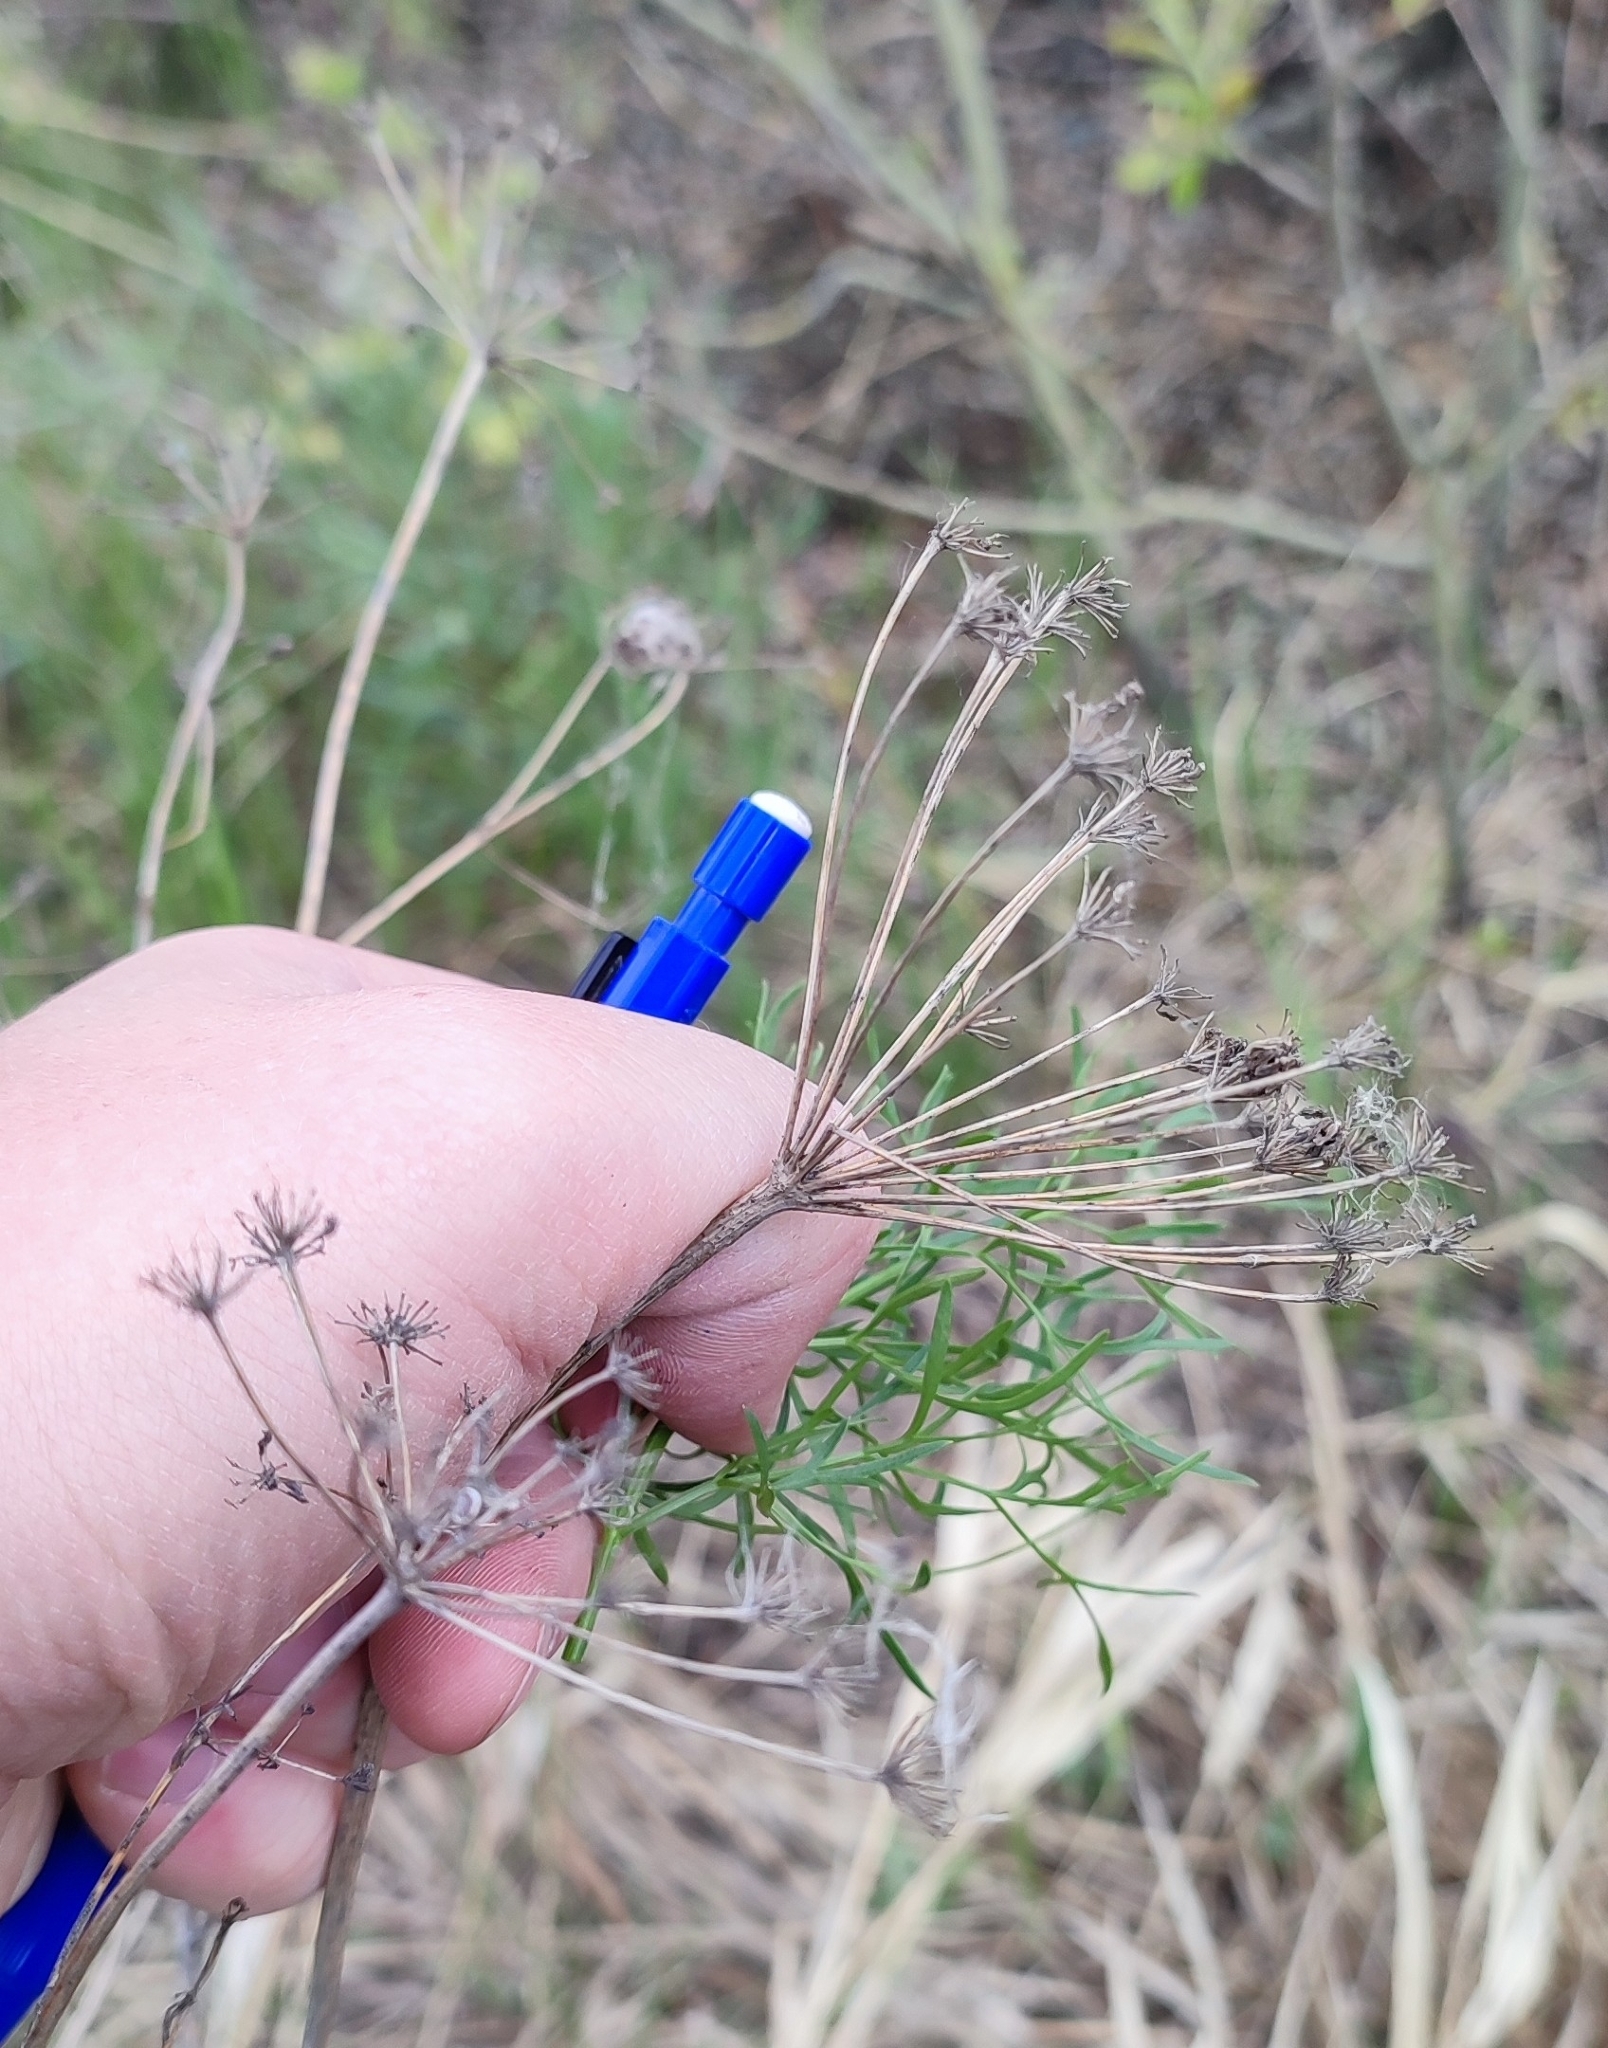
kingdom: Plantae
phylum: Tracheophyta
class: Magnoliopsida
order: Apiales
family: Apiaceae
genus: Silaum
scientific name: Silaum silaus
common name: Pepper-saxifrage
